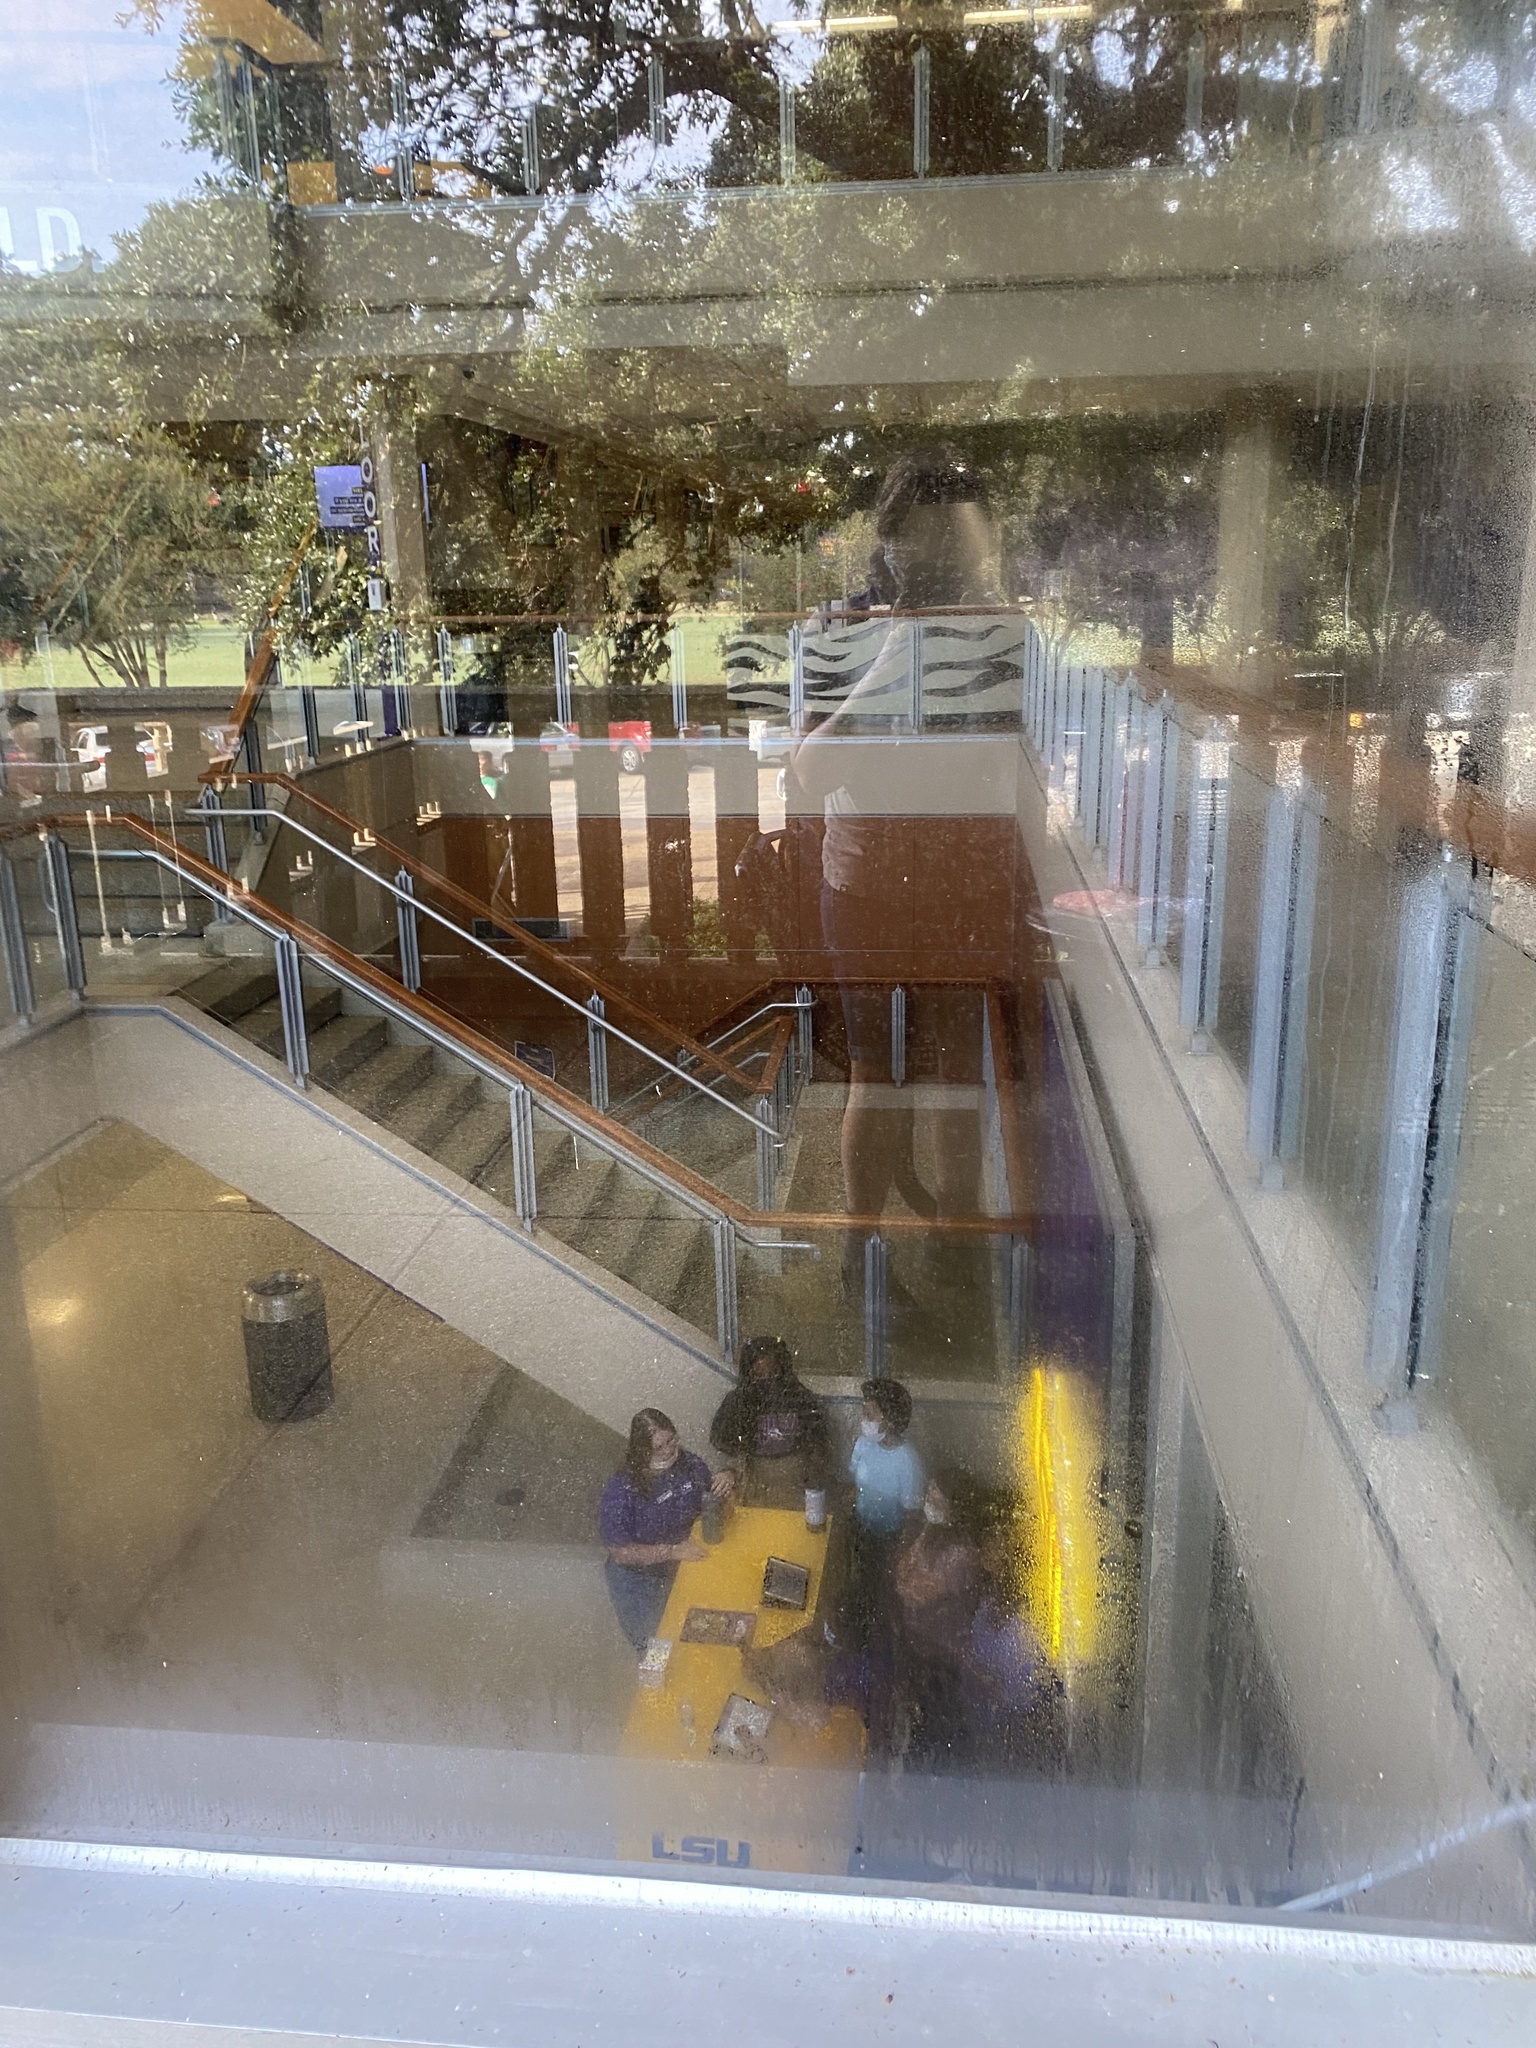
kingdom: Animalia
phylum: Chordata
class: Aves
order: Passeriformes
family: Tyrannidae
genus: Empidonax
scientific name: Empidonax virescens
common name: Acadian flycatcher
